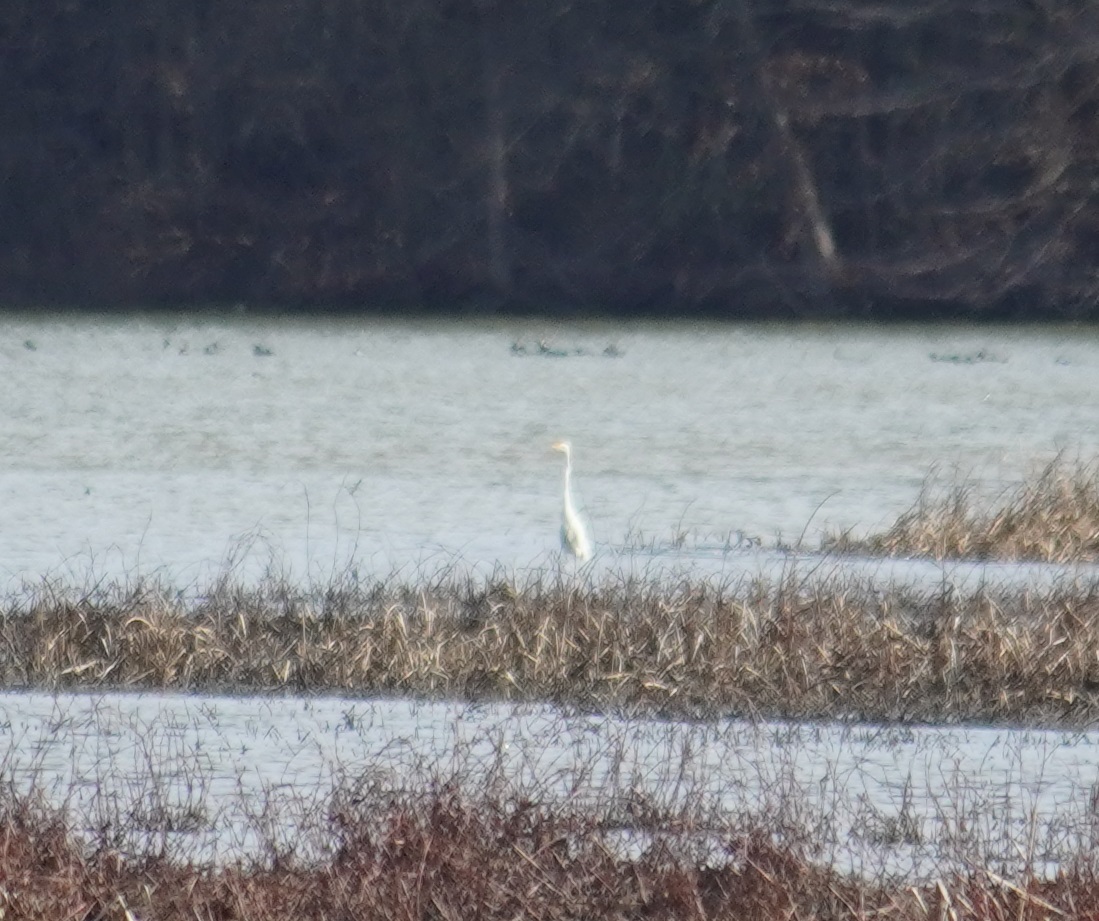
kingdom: Animalia
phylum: Chordata
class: Aves
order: Pelecaniformes
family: Ardeidae
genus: Ardea
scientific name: Ardea alba
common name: Great egret
